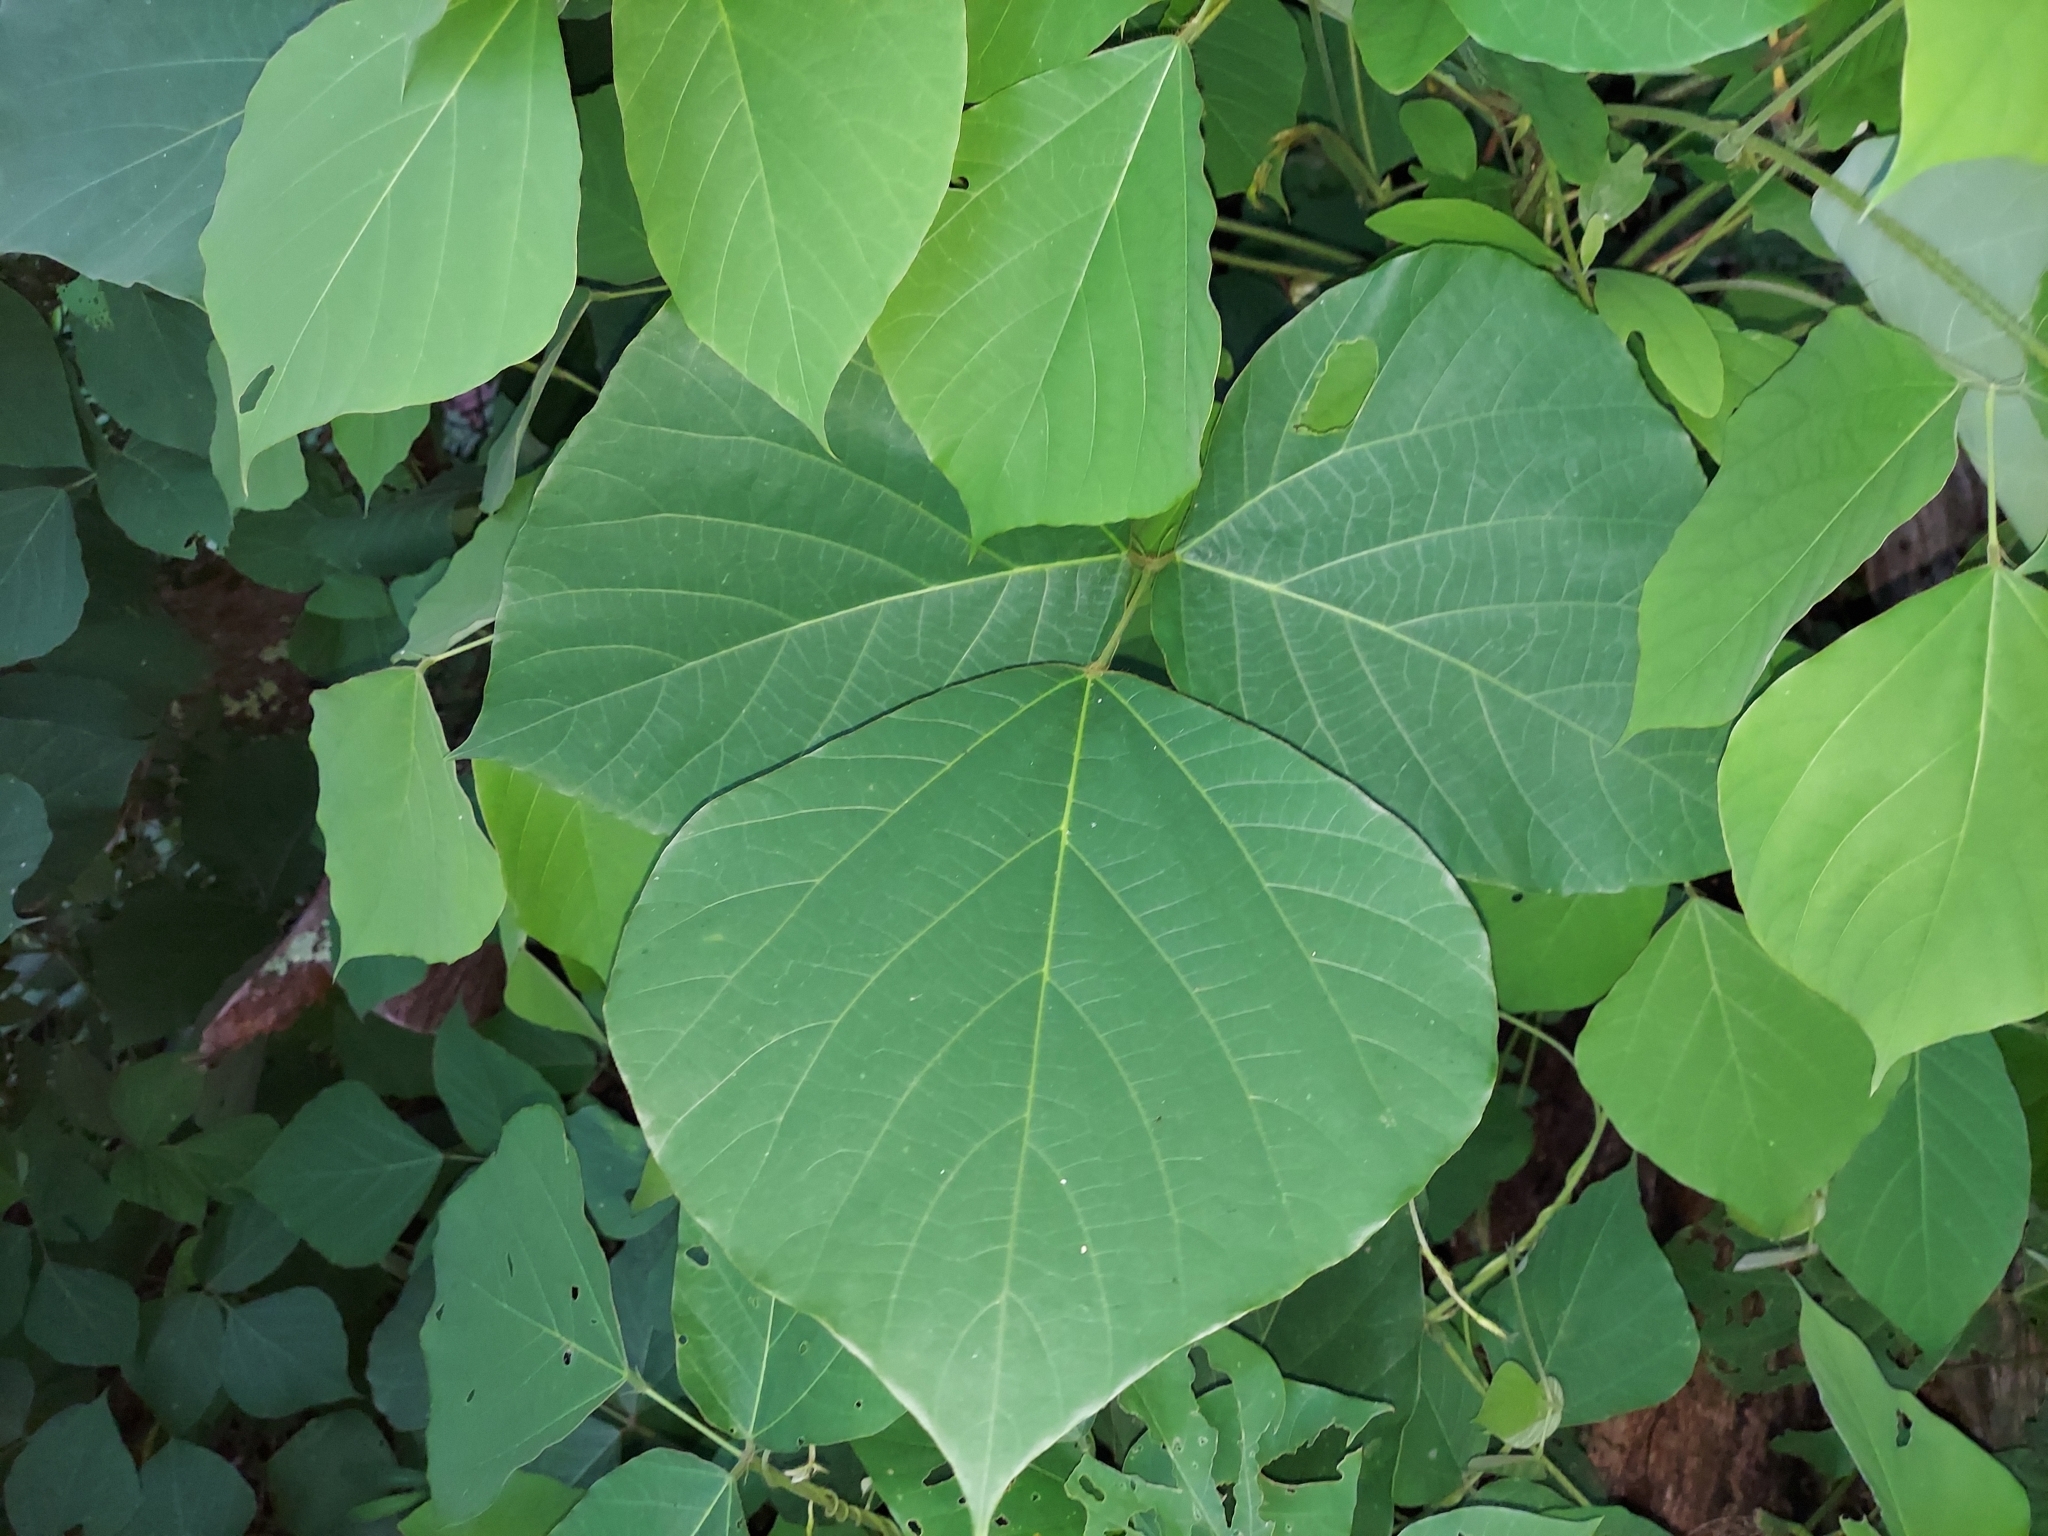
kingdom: Plantae
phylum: Tracheophyta
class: Magnoliopsida
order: Fabales
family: Fabaceae
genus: Pueraria
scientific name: Pueraria montana
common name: Kudzu
